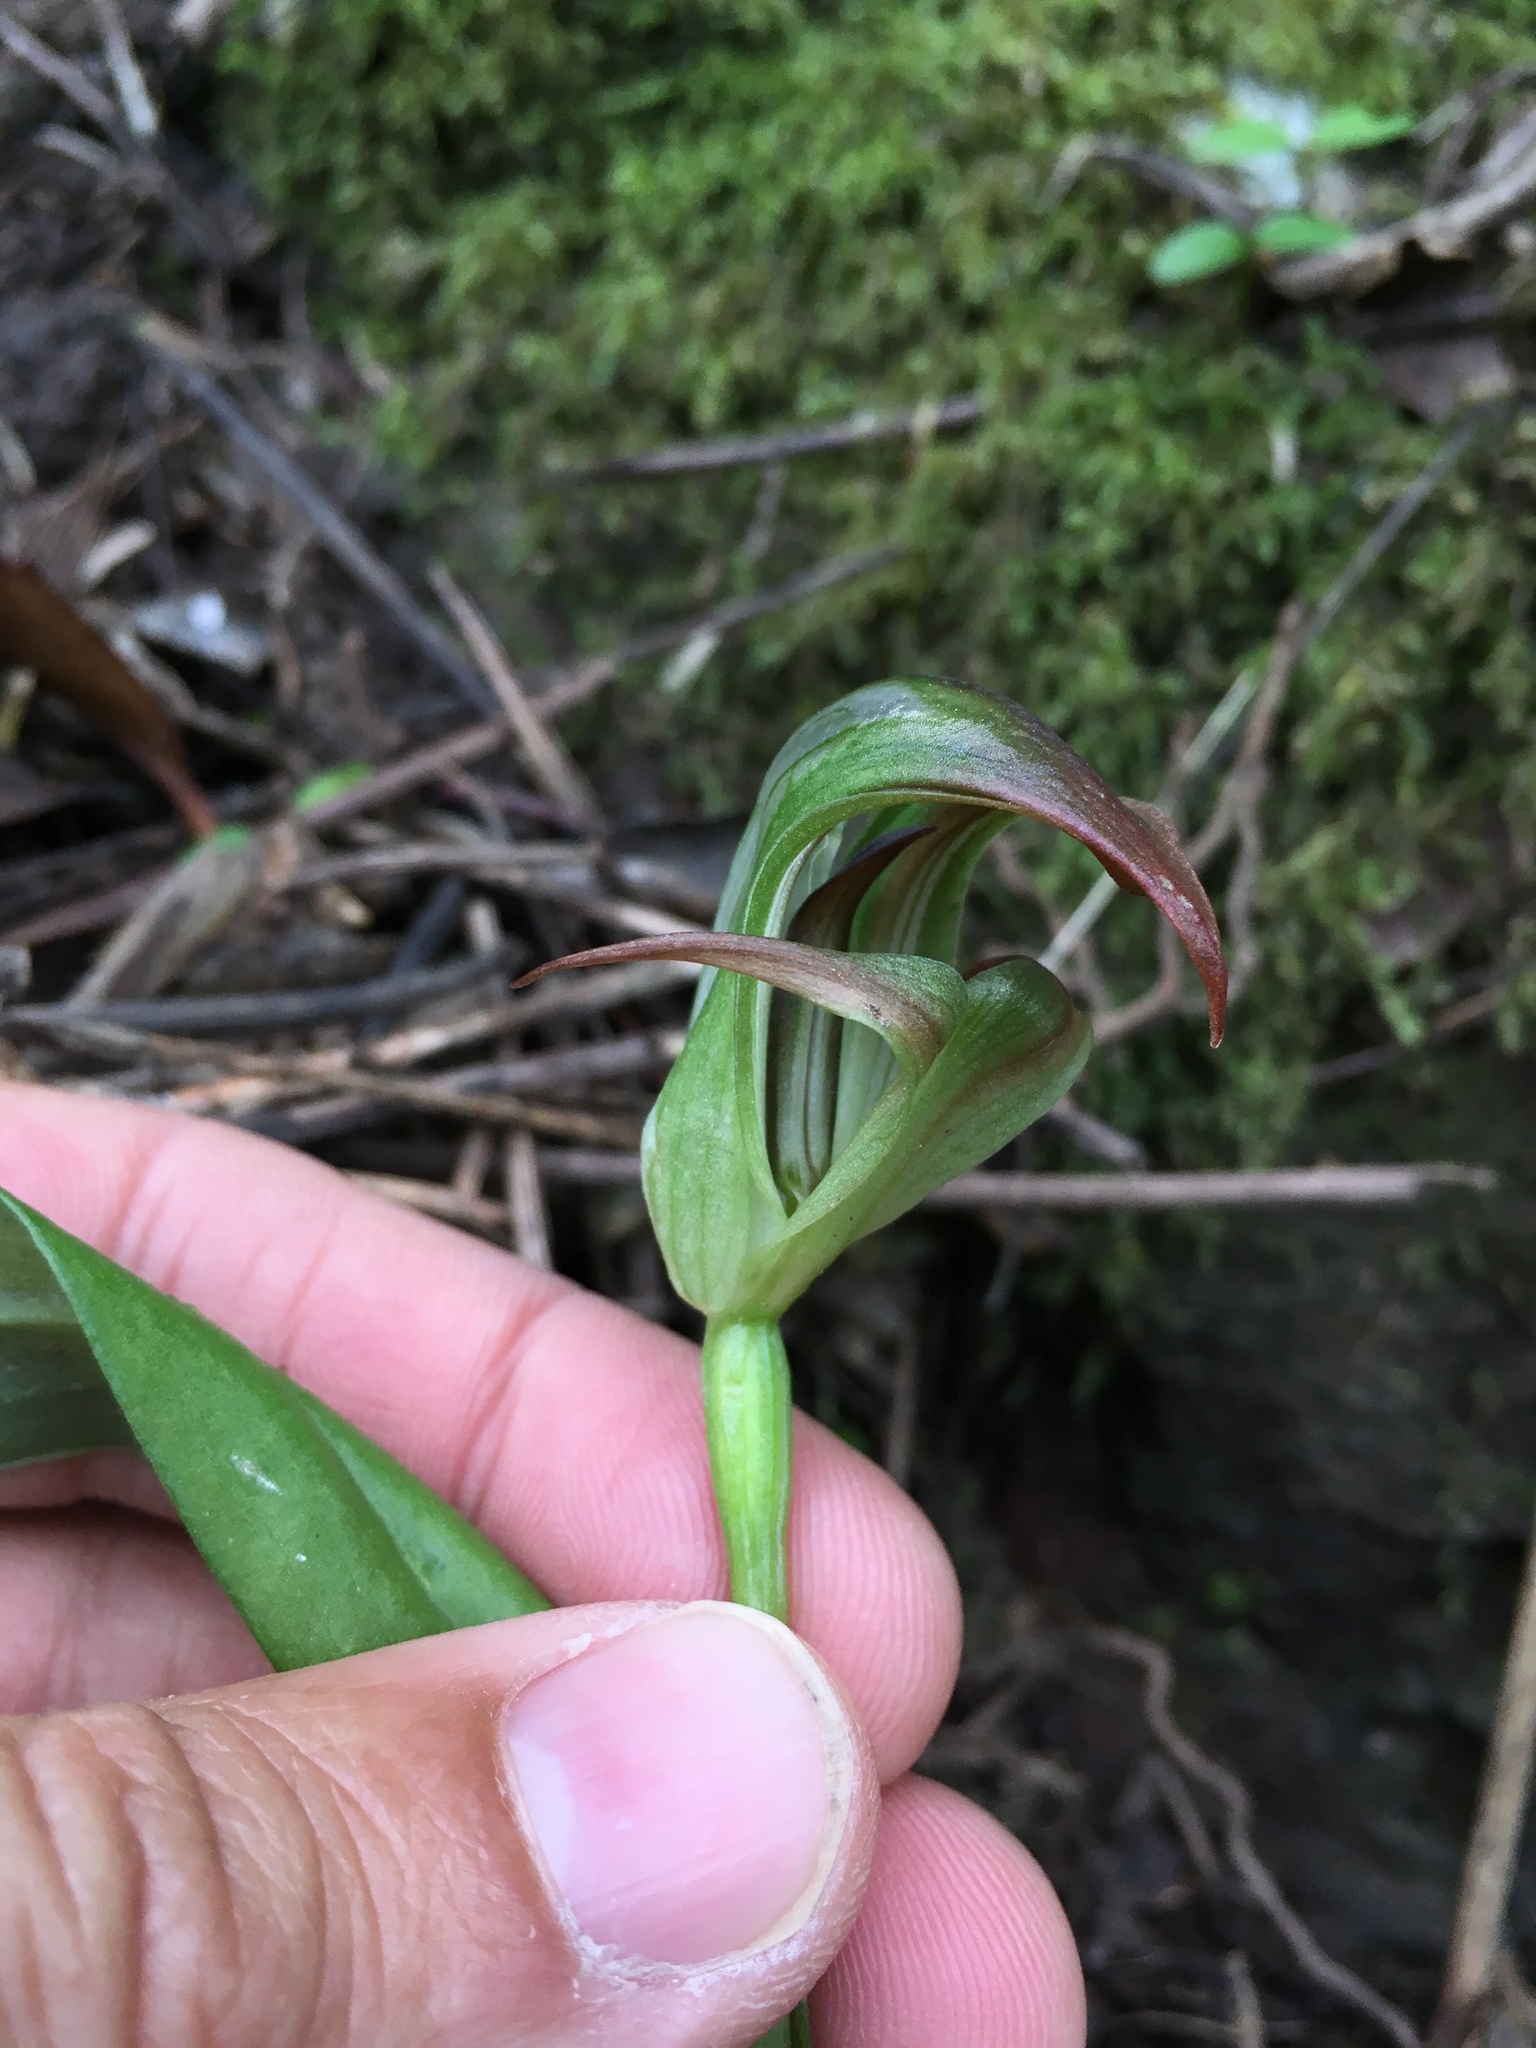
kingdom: Plantae
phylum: Tracheophyta
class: Liliopsida
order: Asparagales
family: Orchidaceae
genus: Pterostylis
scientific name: Pterostylis areolata
